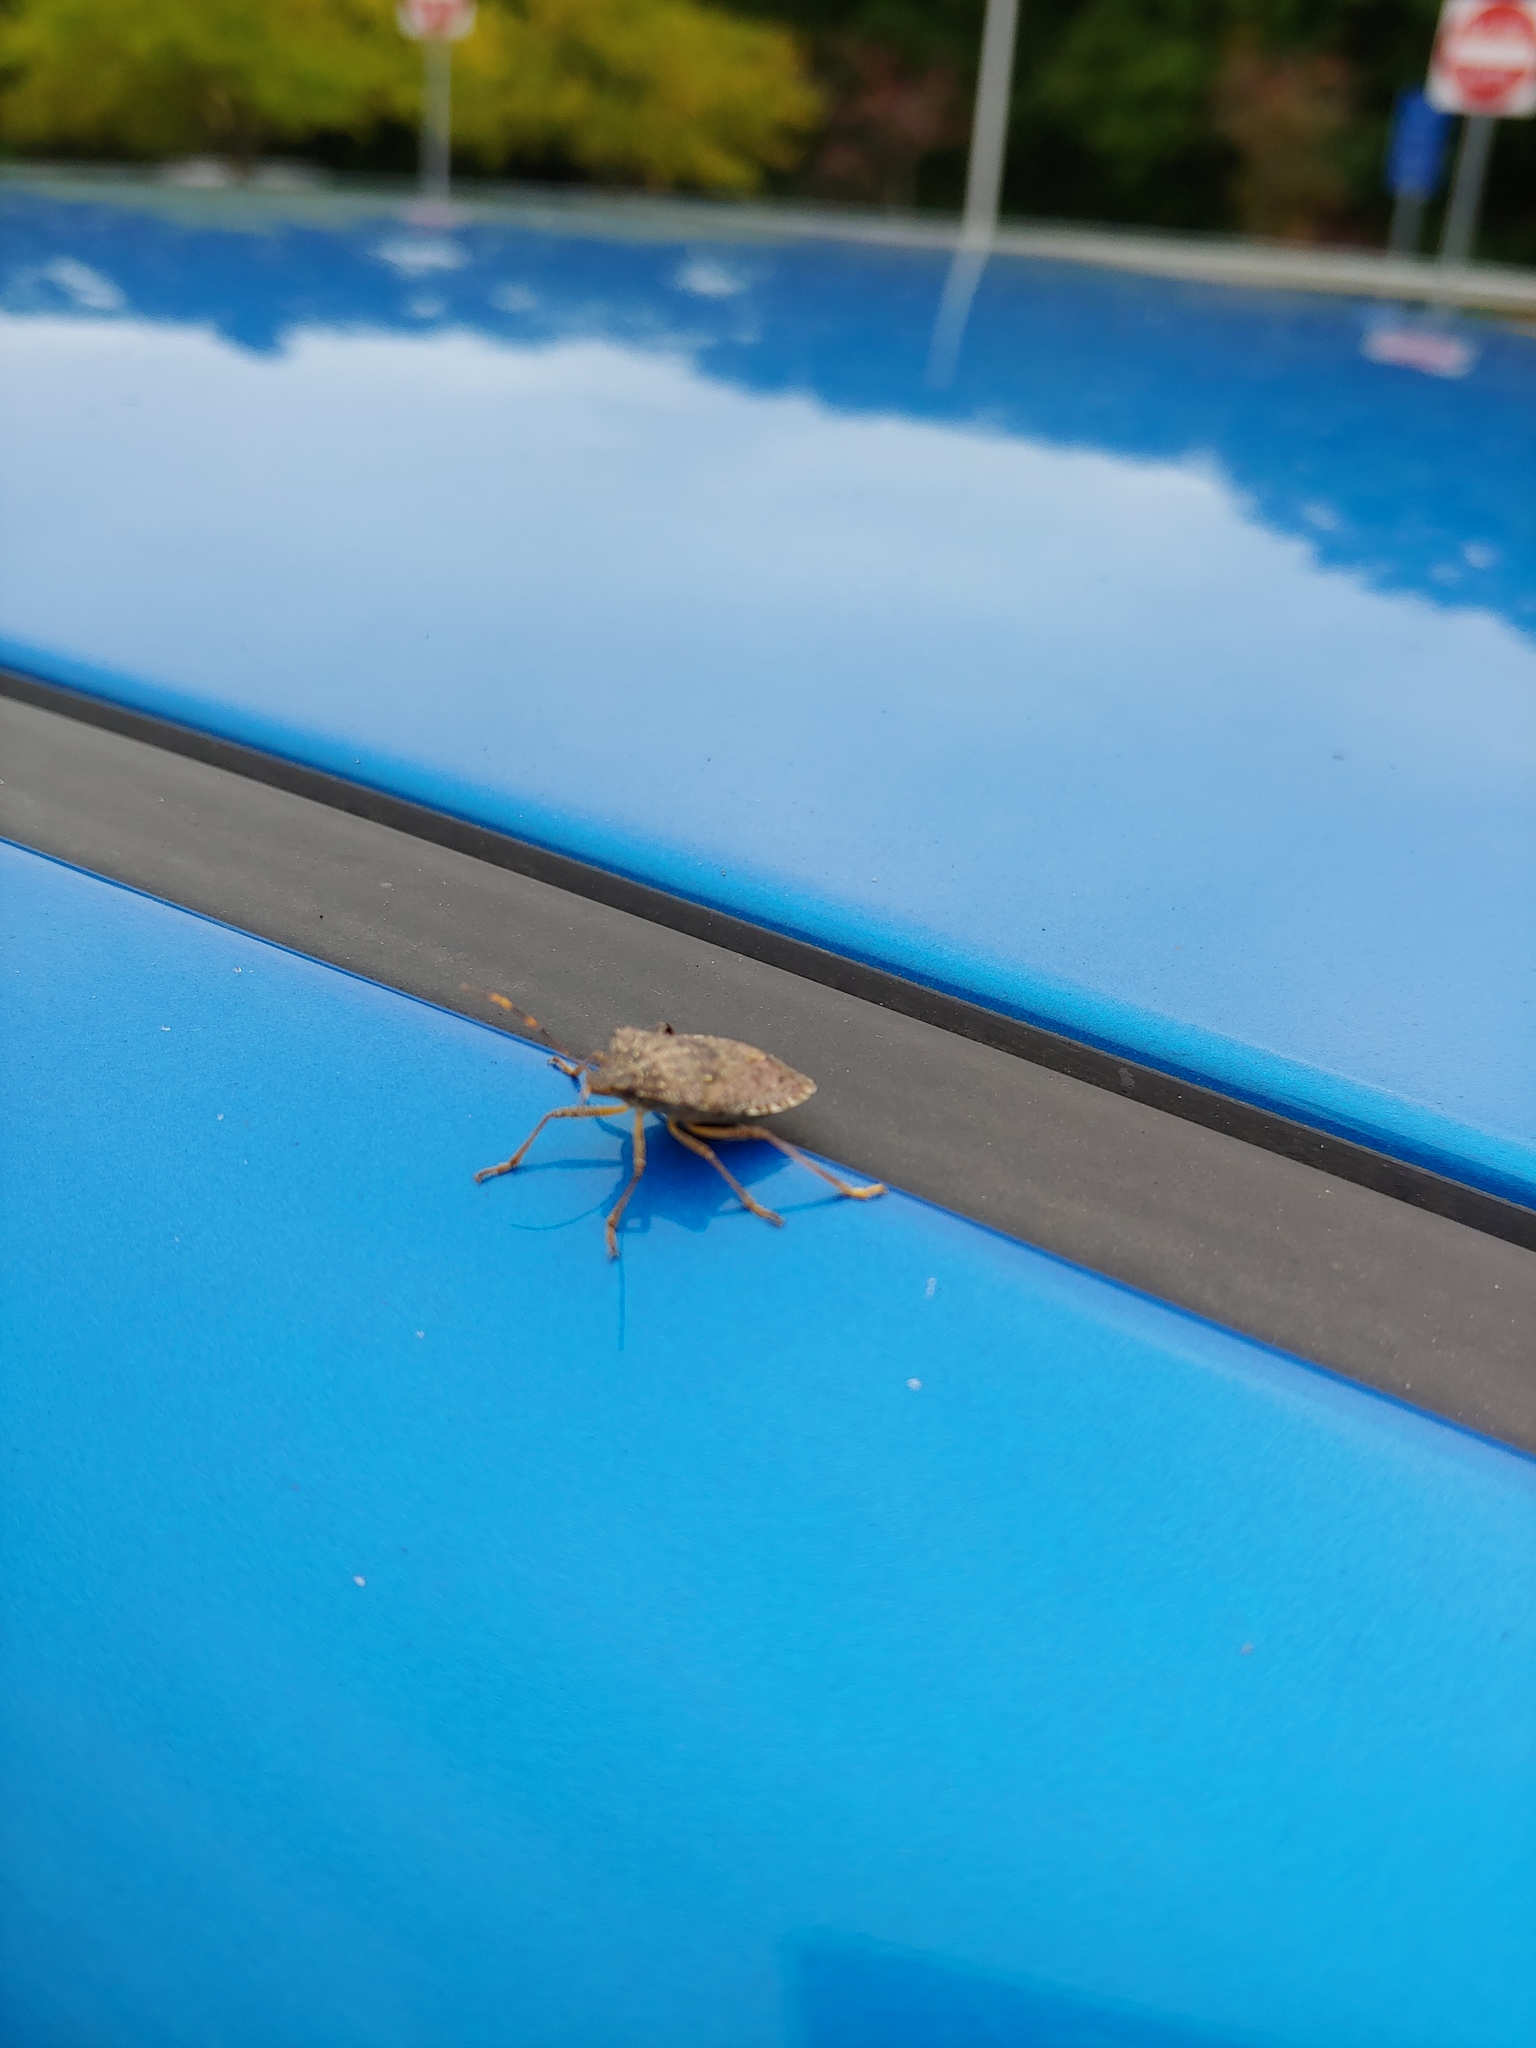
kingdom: Animalia
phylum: Arthropoda
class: Insecta
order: Hemiptera
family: Pentatomidae
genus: Halyomorpha
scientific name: Halyomorpha halys
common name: Brown marmorated stink bug
